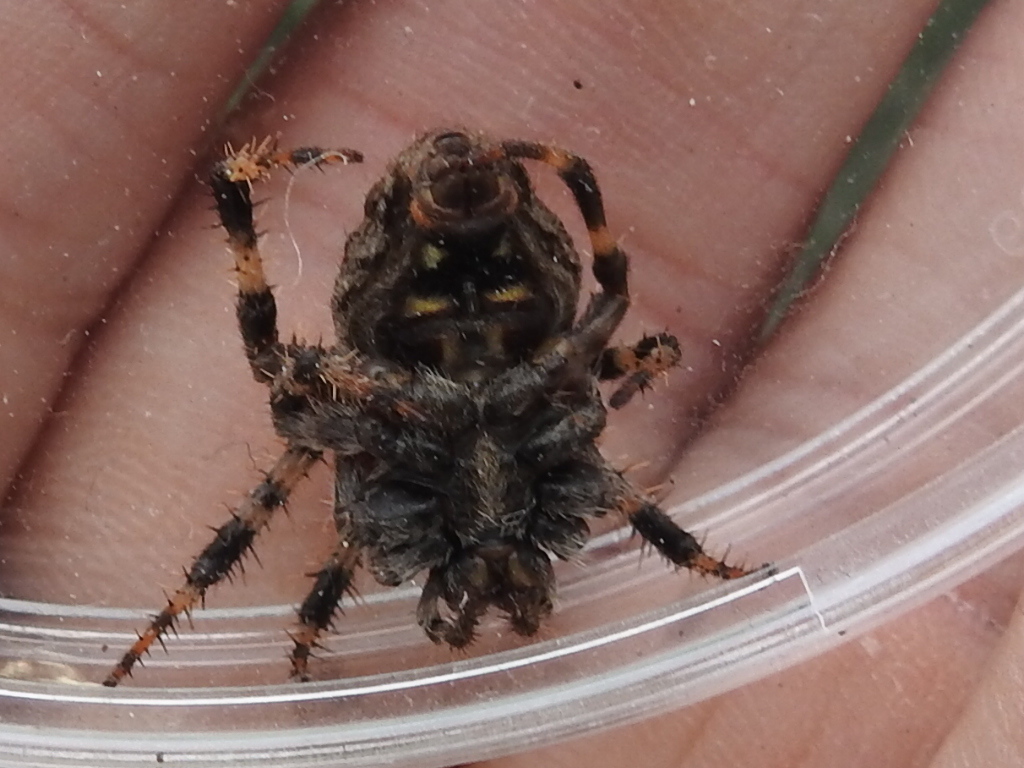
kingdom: Animalia
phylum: Arthropoda
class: Arachnida
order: Araneae
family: Araneidae
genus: Neoscona
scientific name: Neoscona crucifera
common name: Spotted orbweaver
